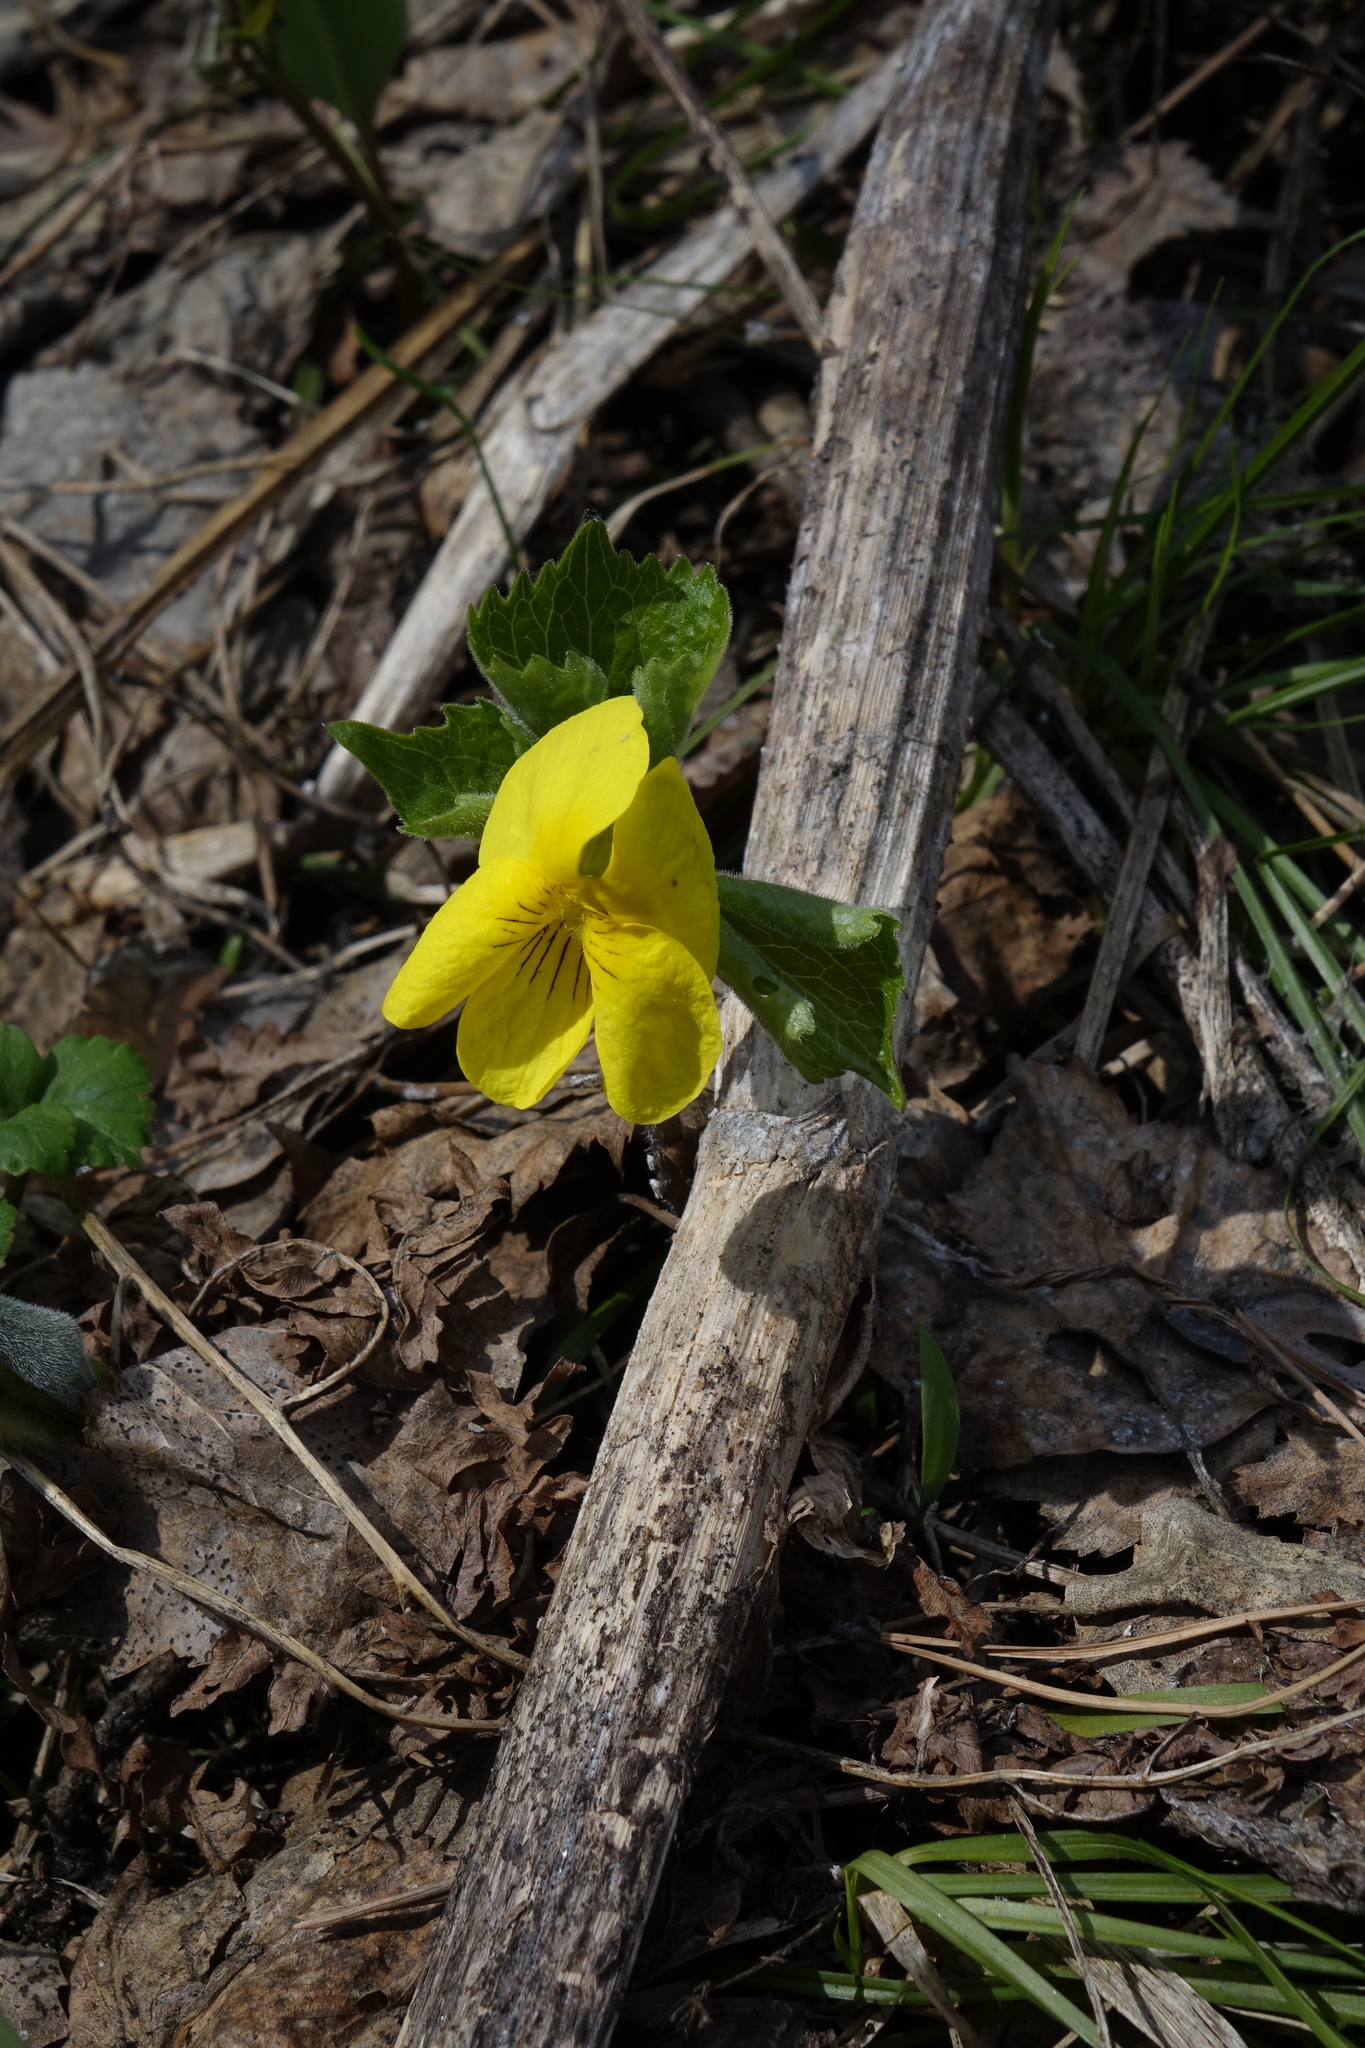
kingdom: Plantae
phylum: Tracheophyta
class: Magnoliopsida
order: Malpighiales
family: Violaceae
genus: Viola
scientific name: Viola uniflora
